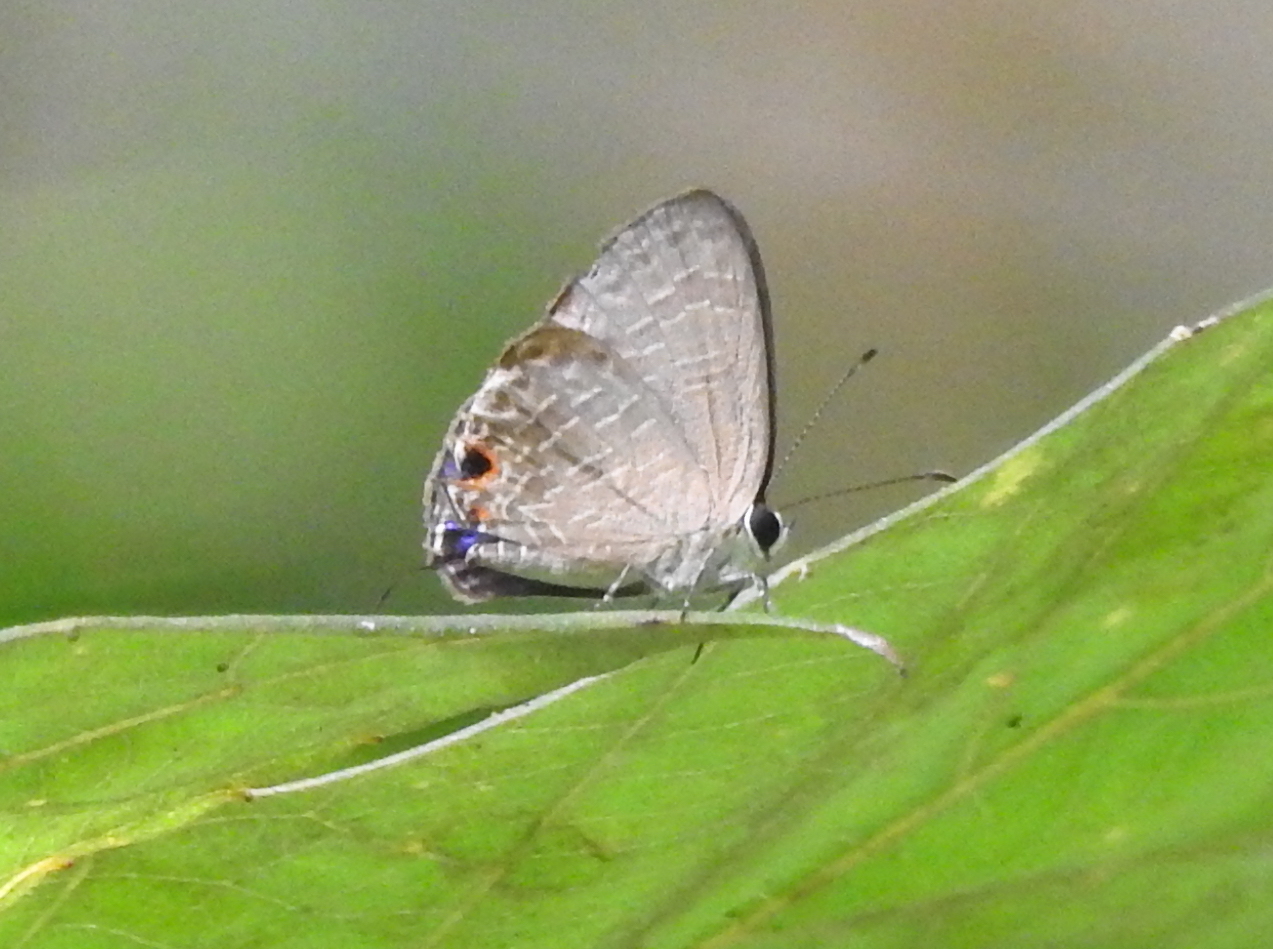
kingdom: Animalia
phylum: Arthropoda
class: Insecta
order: Lepidoptera
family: Lycaenidae
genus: Jamides
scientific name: Jamides bochus
